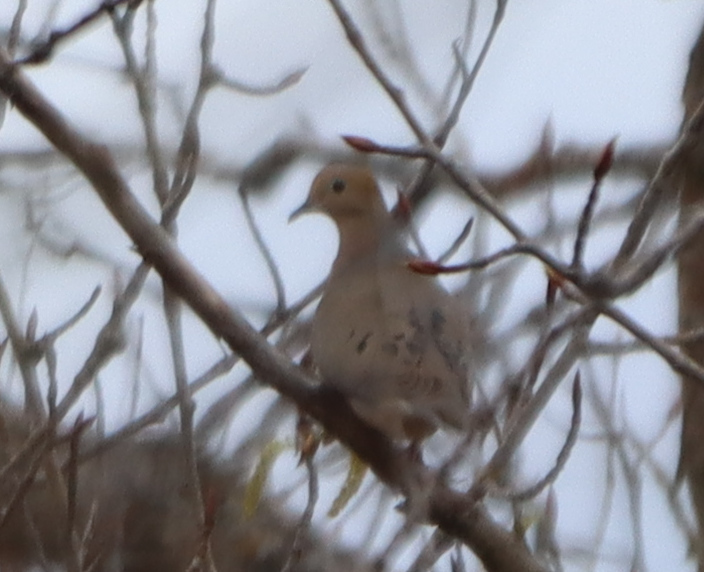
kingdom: Animalia
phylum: Chordata
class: Aves
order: Columbiformes
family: Columbidae
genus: Zenaida
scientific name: Zenaida macroura
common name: Mourning dove
